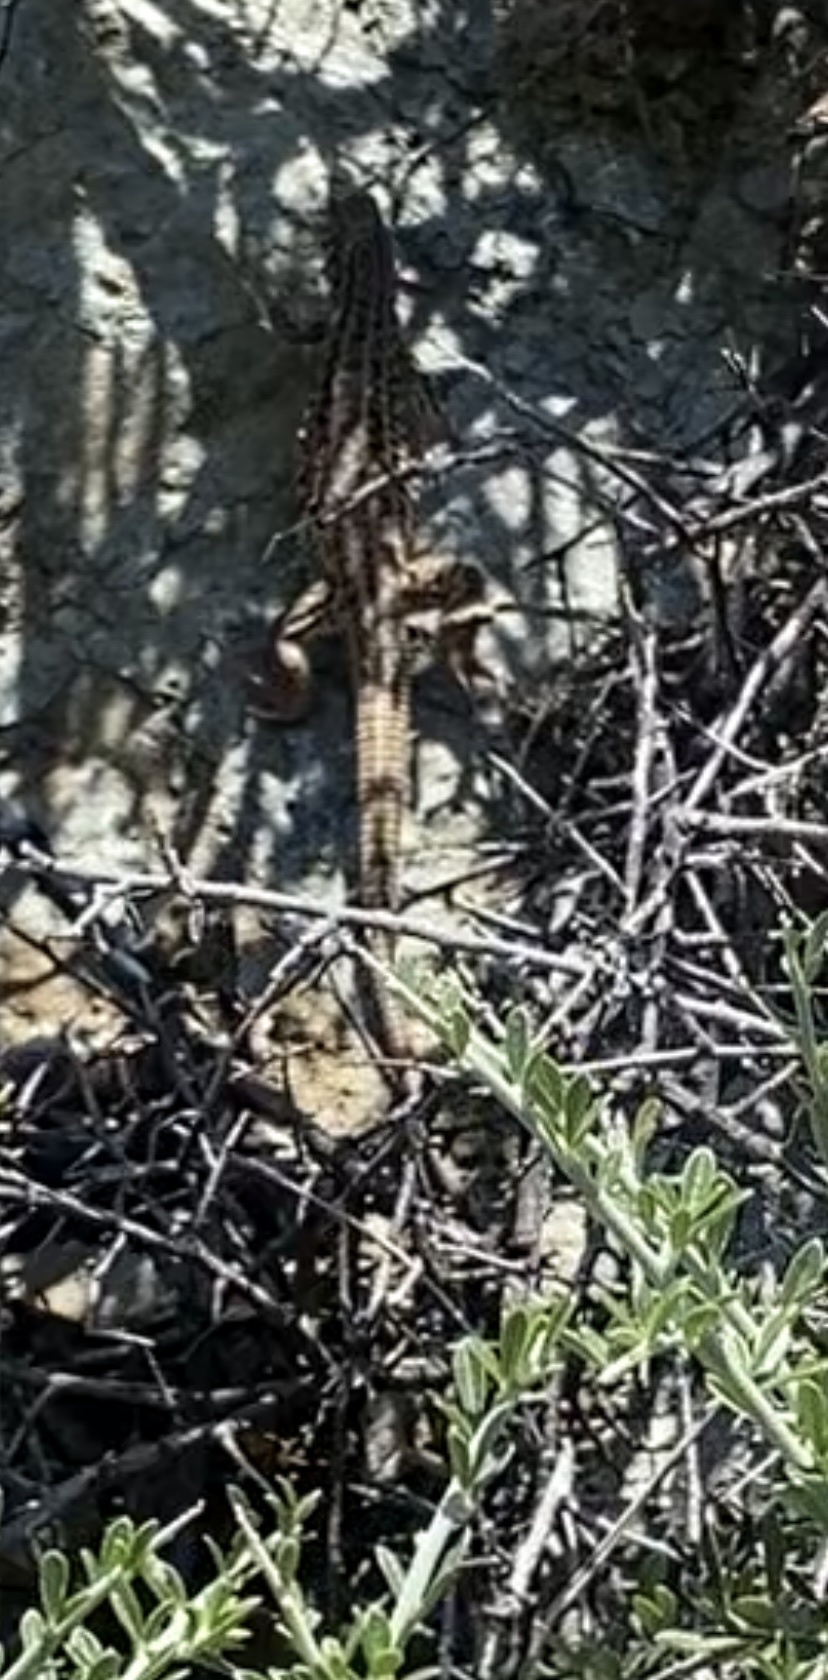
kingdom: Animalia
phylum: Chordata
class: Squamata
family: Teiidae
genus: Aspidoscelis
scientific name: Aspidoscelis tigris
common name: Tiger whiptail
